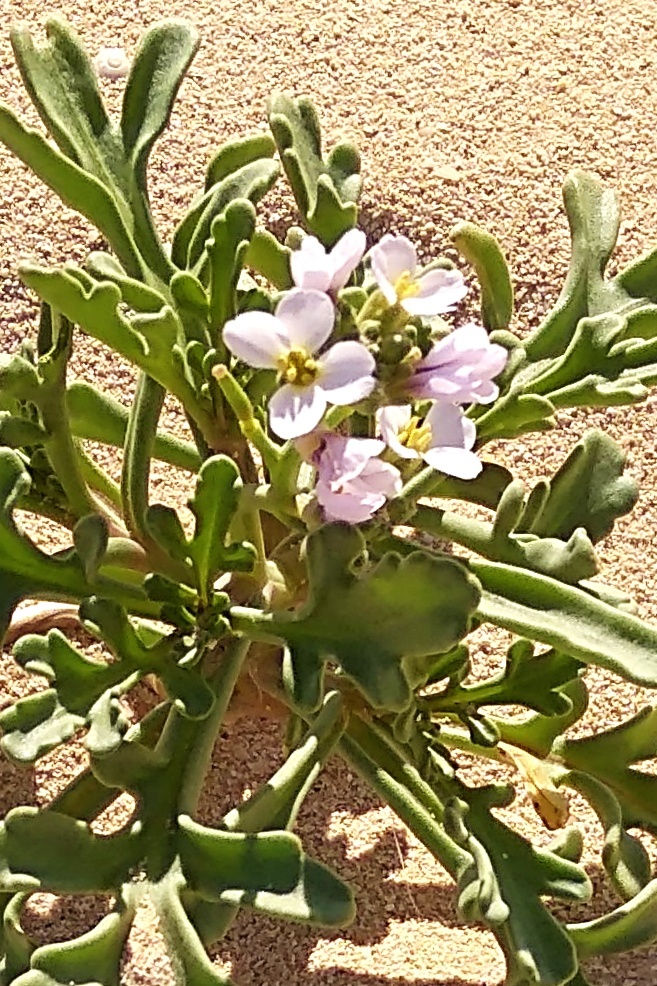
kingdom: Plantae
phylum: Tracheophyta
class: Magnoliopsida
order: Brassicales
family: Brassicaceae
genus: Cakile
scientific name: Cakile maritima
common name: Sea rocket
